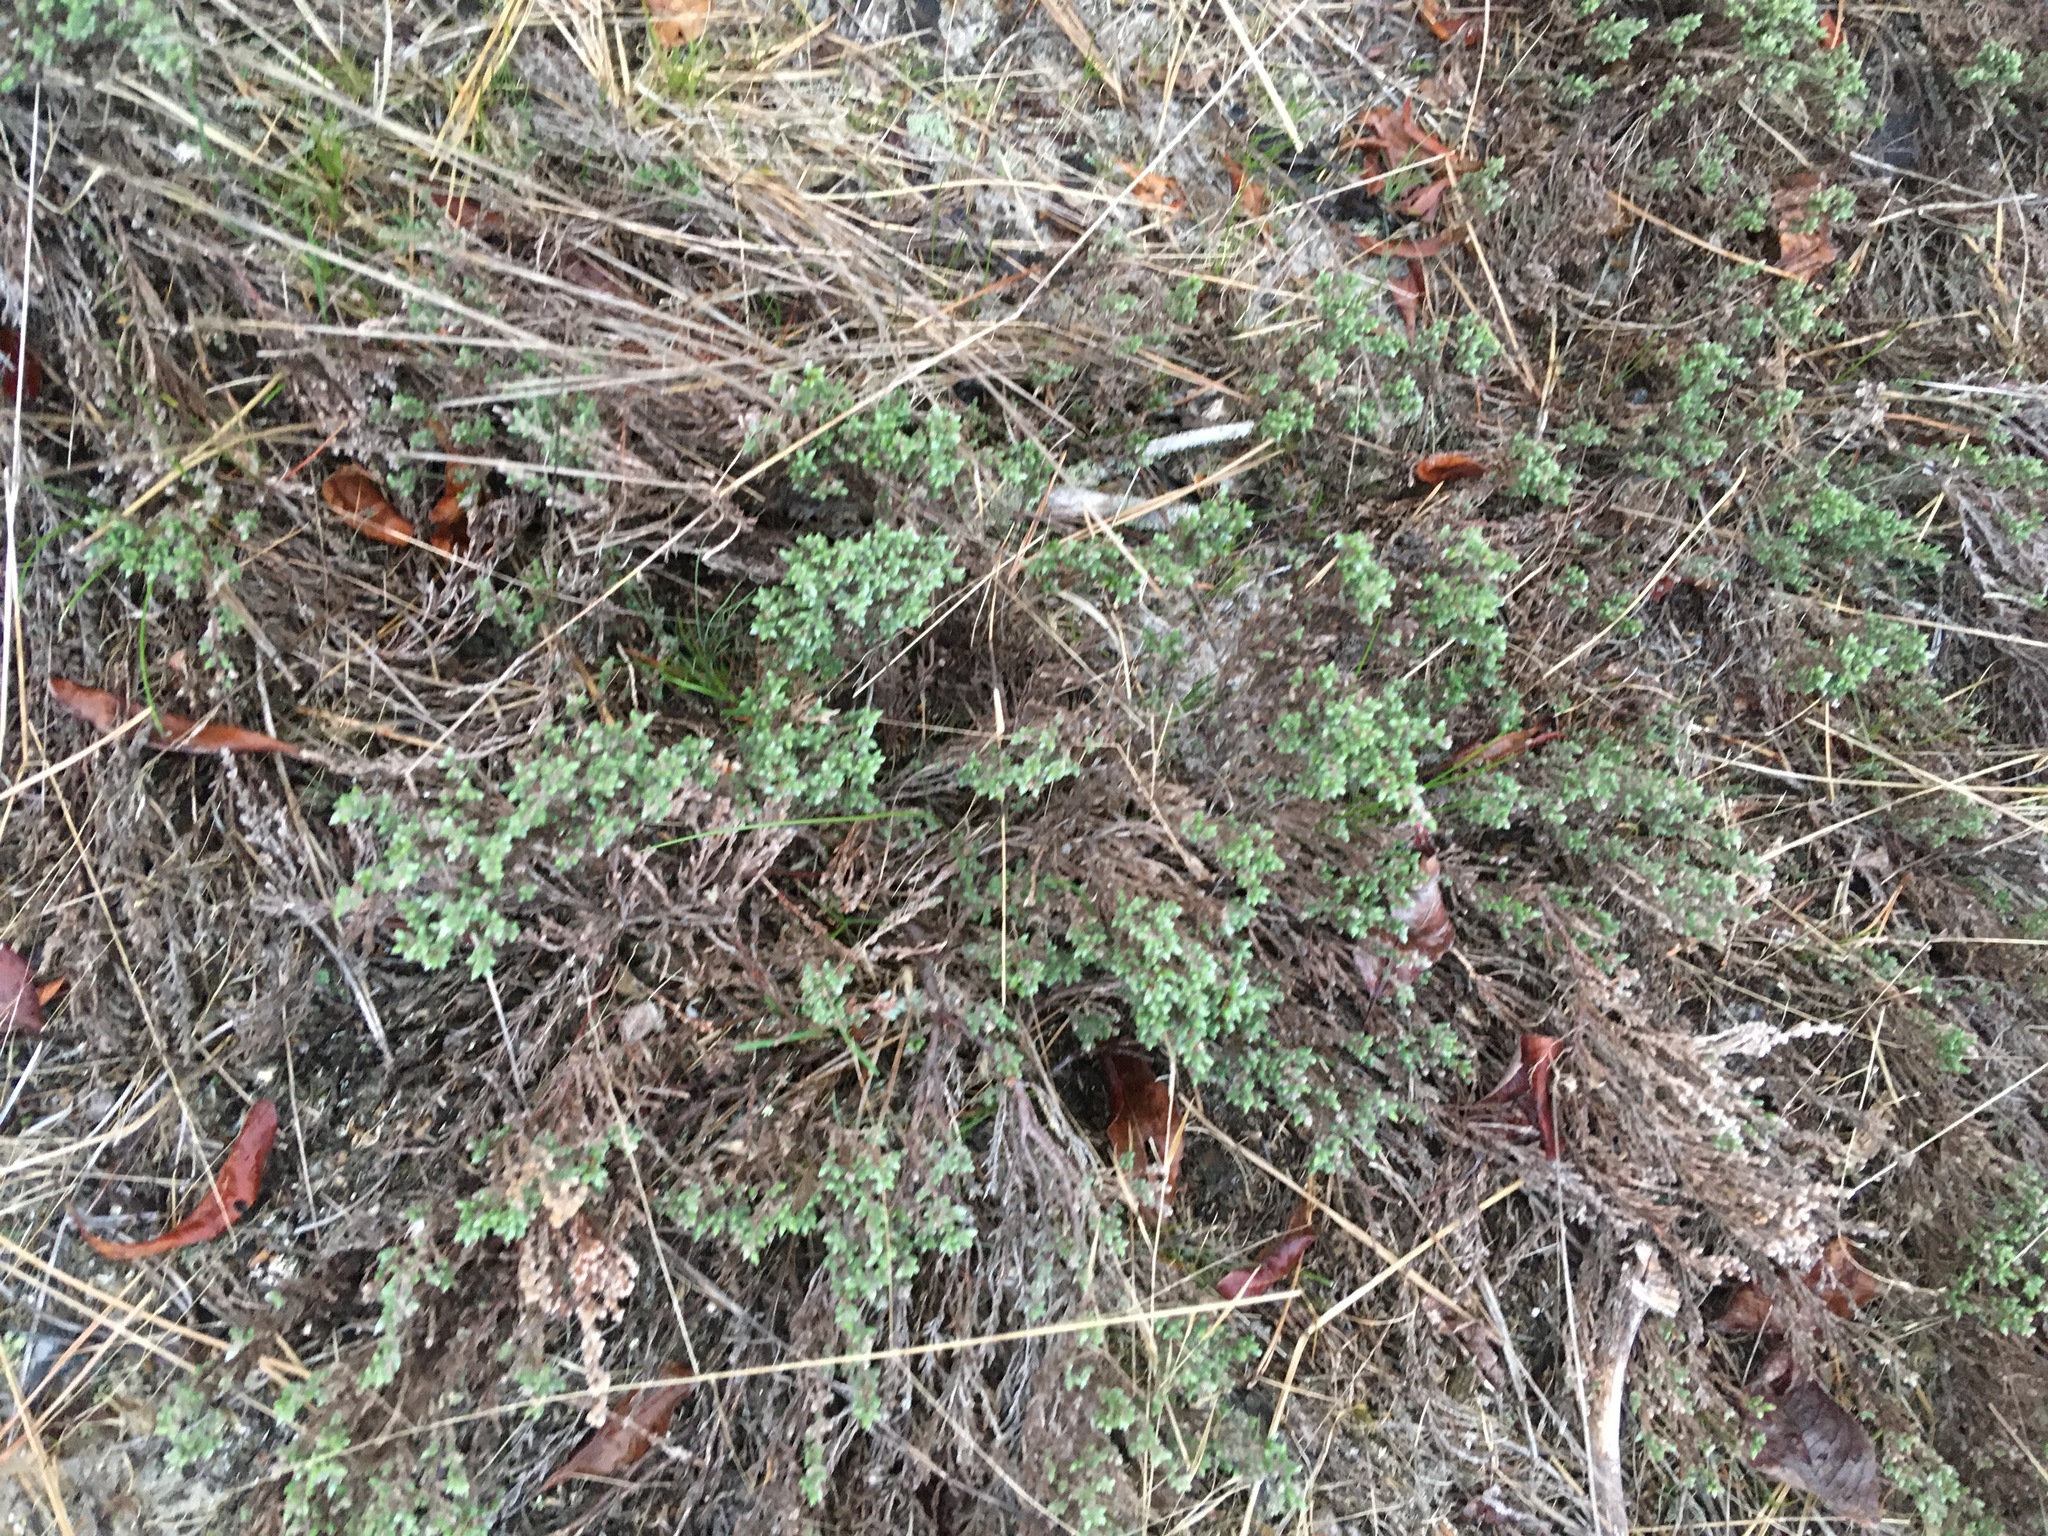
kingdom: Plantae
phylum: Tracheophyta
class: Magnoliopsida
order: Malvales
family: Cistaceae
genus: Hudsonia
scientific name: Hudsonia tomentosa
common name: Beach-heath
